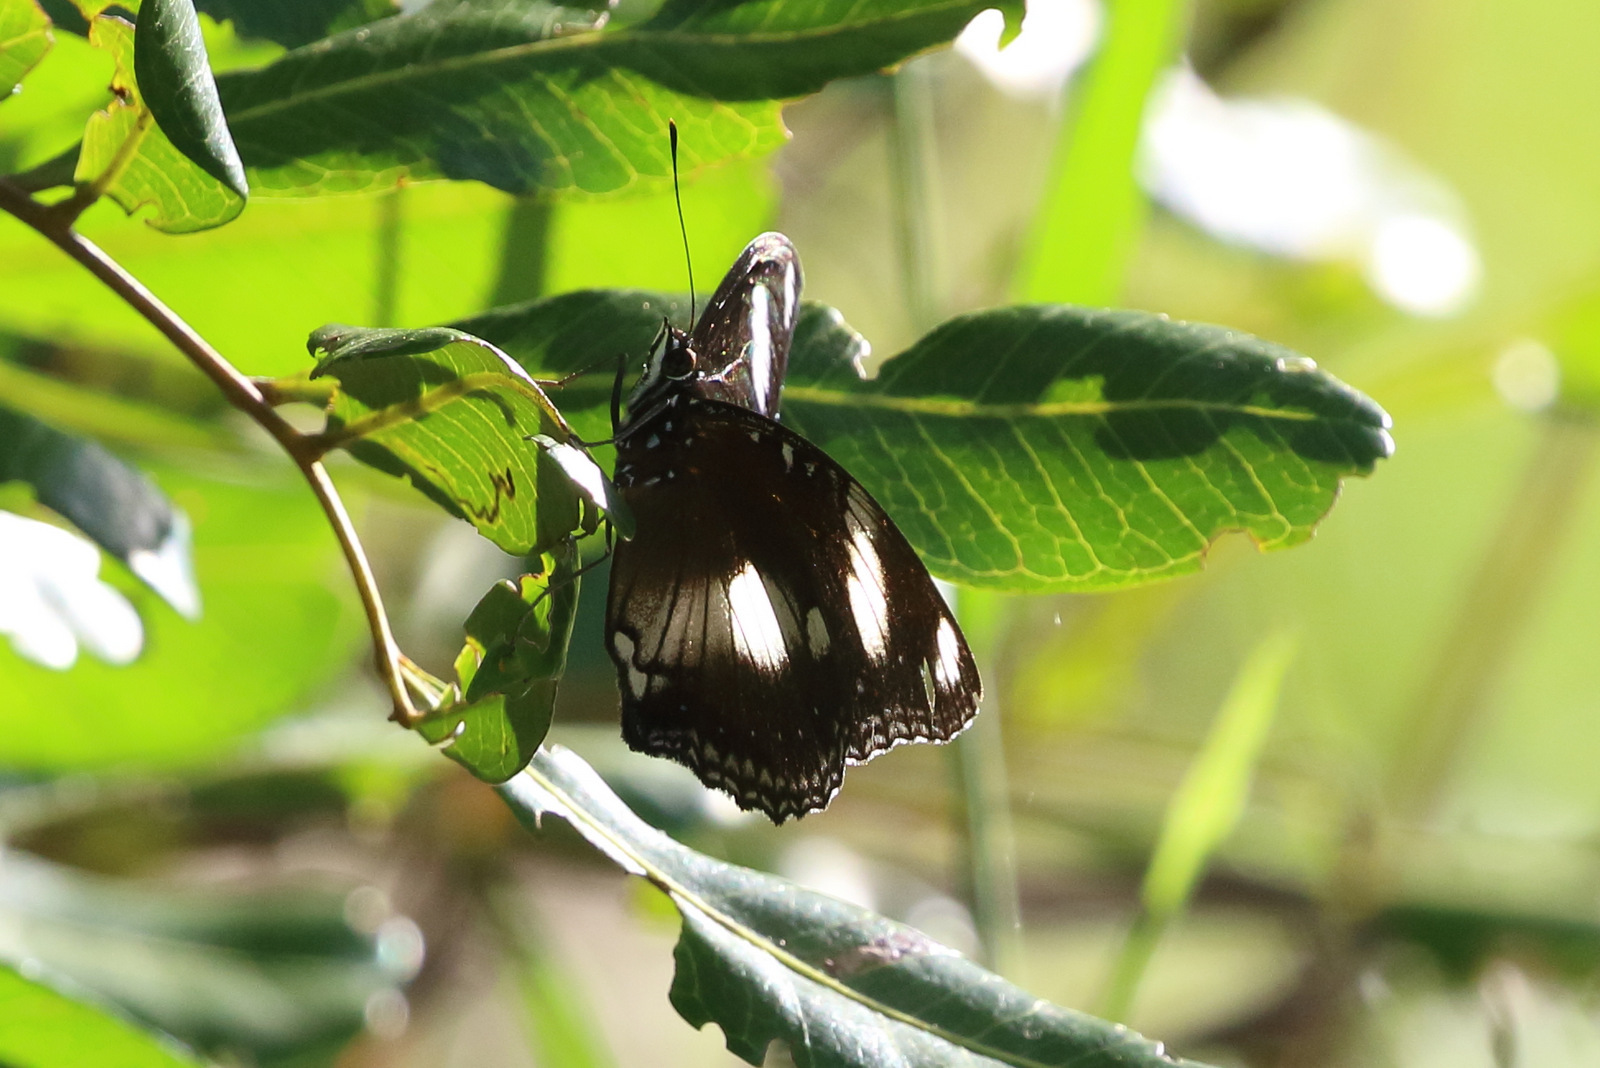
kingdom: Animalia
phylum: Arthropoda
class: Insecta
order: Lepidoptera
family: Nymphalidae
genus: Hypolimnas
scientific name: Hypolimnas bolina
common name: Great eggfly
